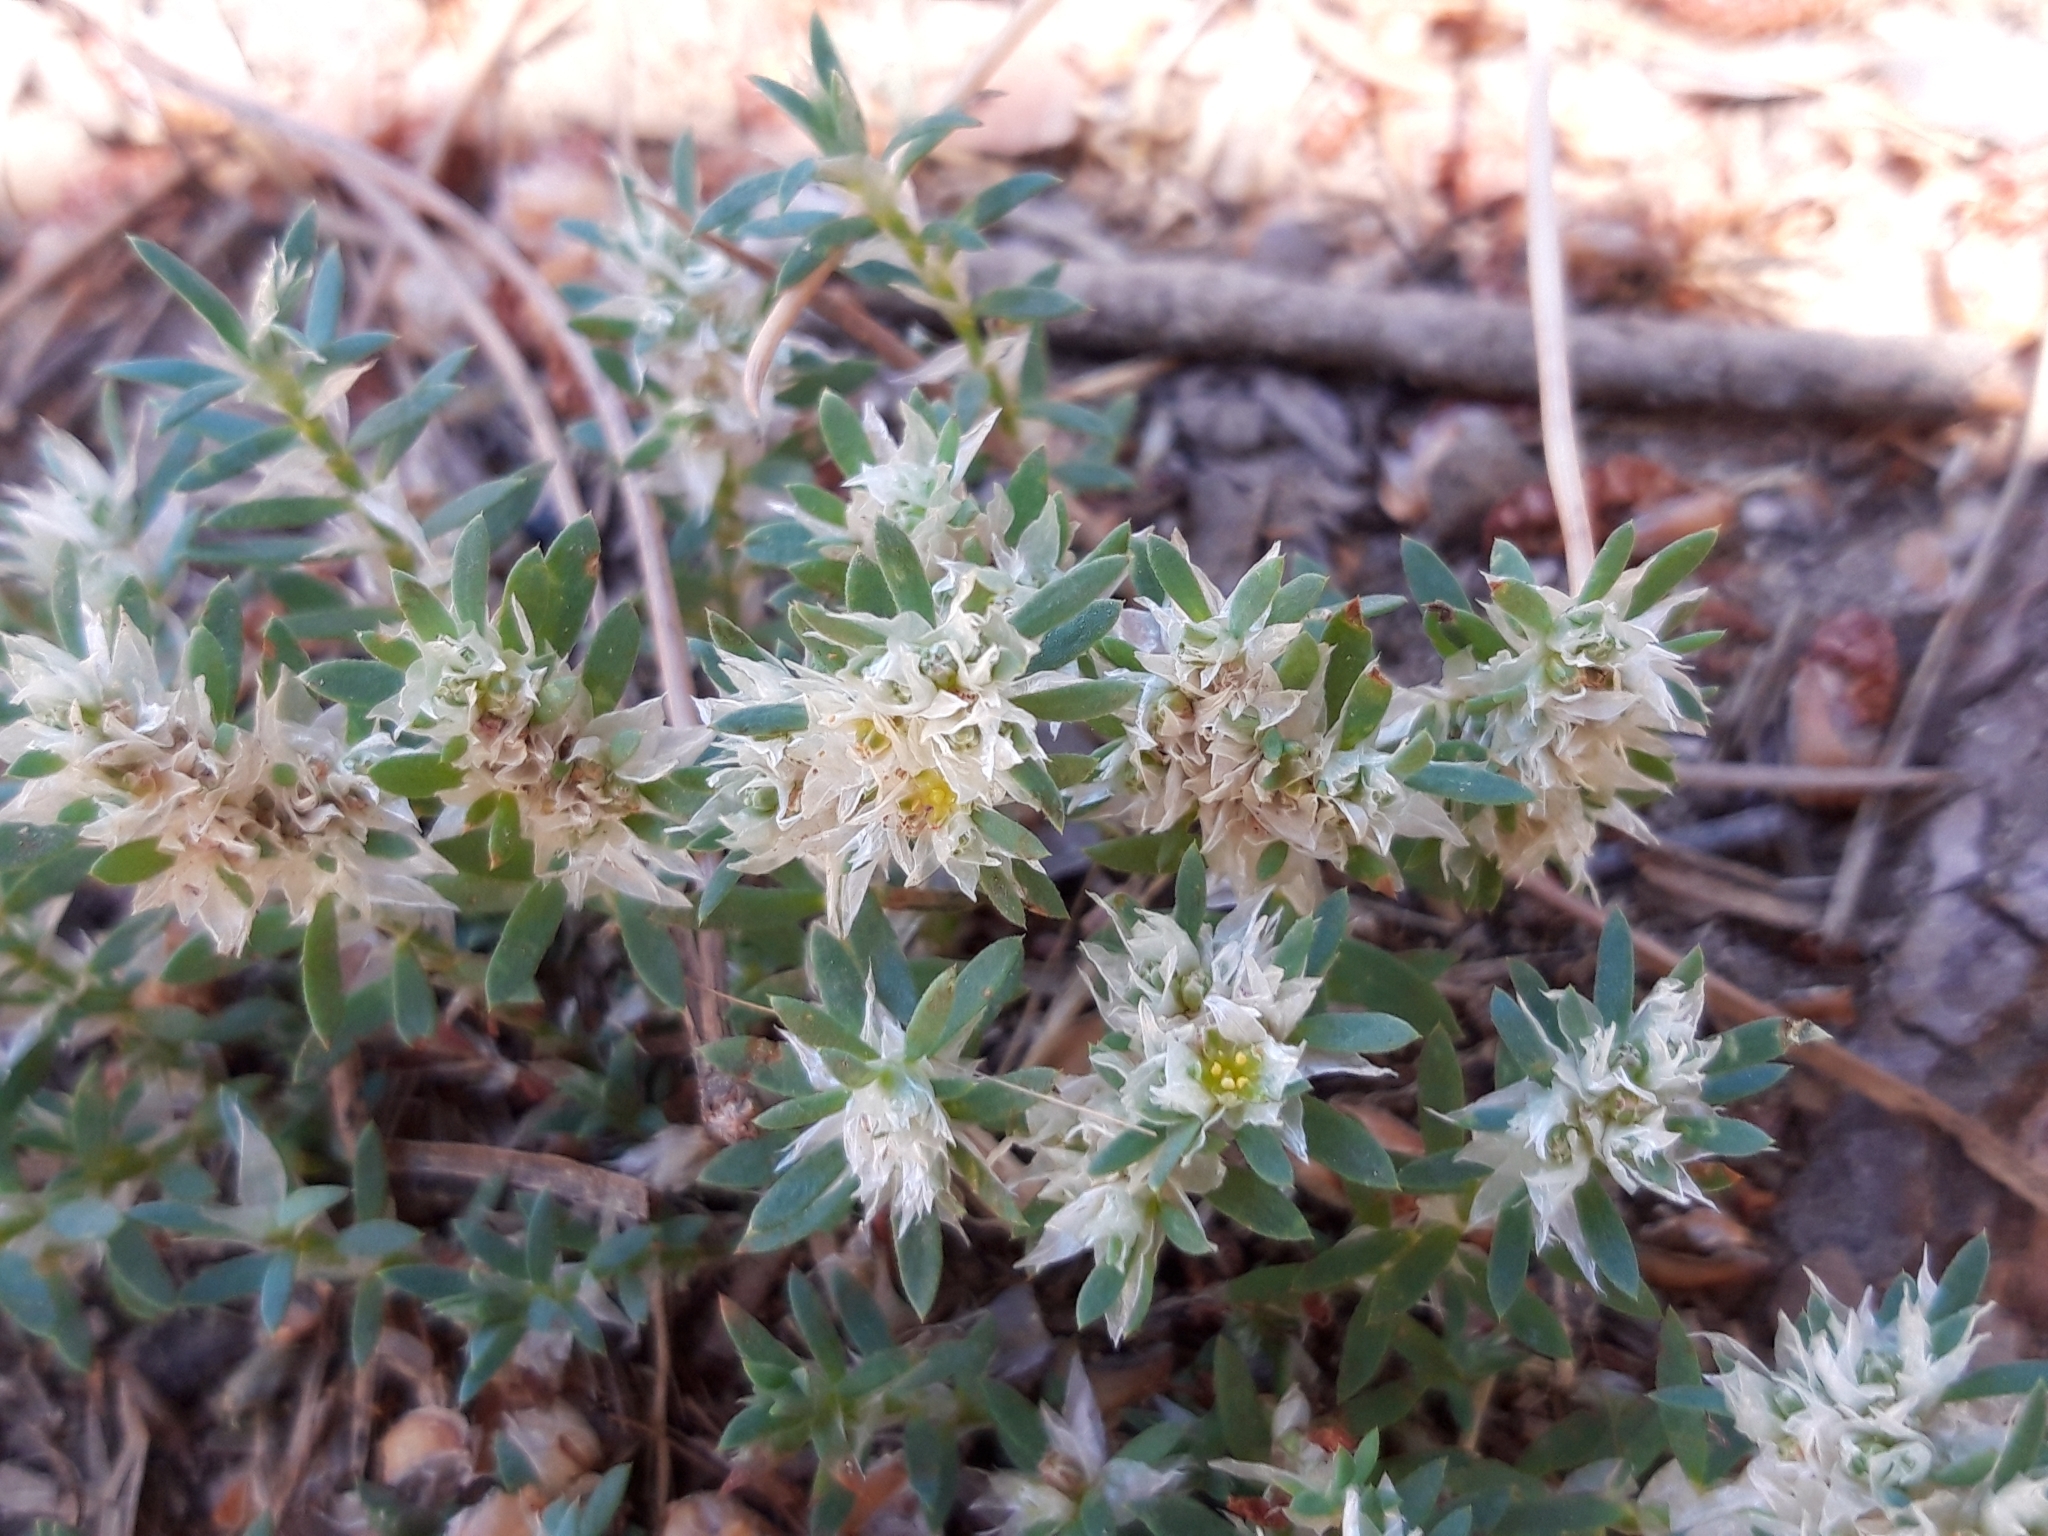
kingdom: Plantae
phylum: Tracheophyta
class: Magnoliopsida
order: Caryophyllales
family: Caryophyllaceae
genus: Paronychia
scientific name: Paronychia argentea
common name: Silver nailroot
